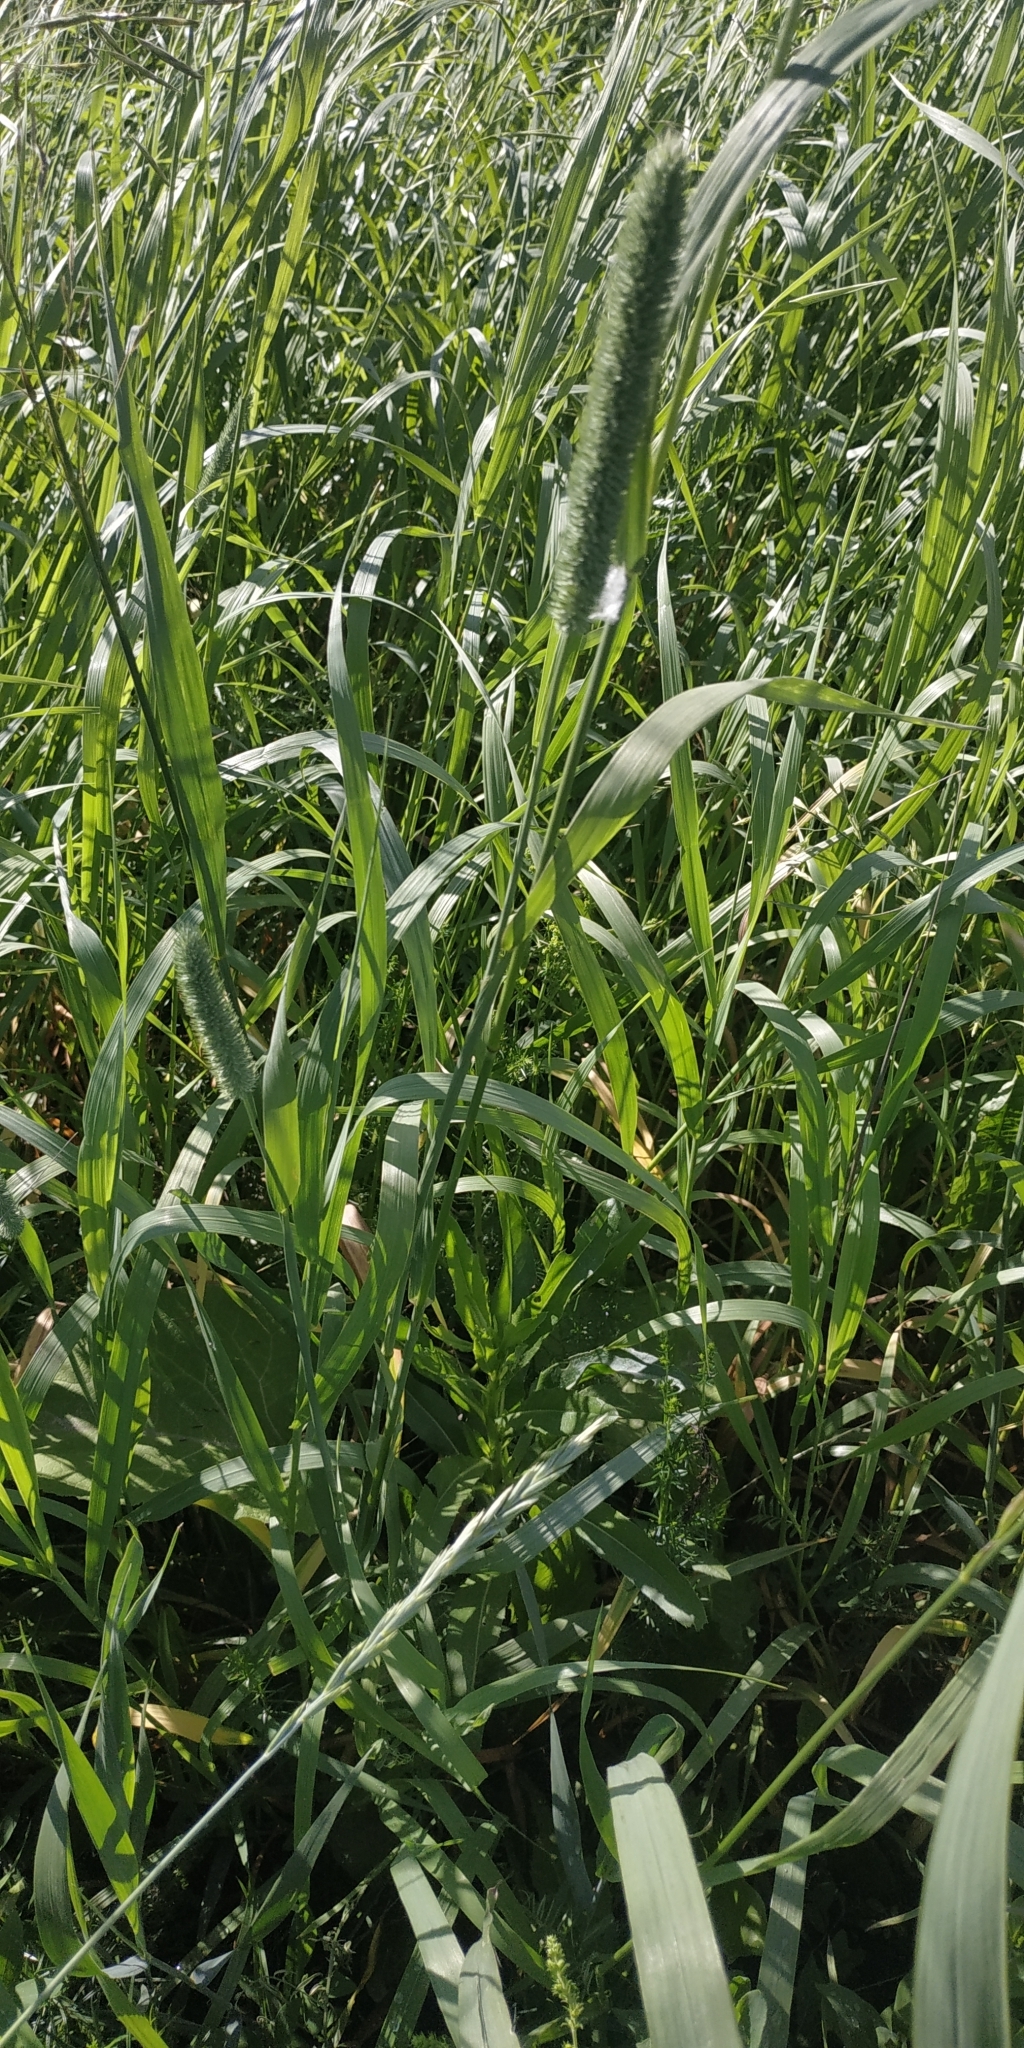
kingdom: Plantae
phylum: Tracheophyta
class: Liliopsida
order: Poales
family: Poaceae
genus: Phleum
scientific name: Phleum pratense
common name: Timothy grass
